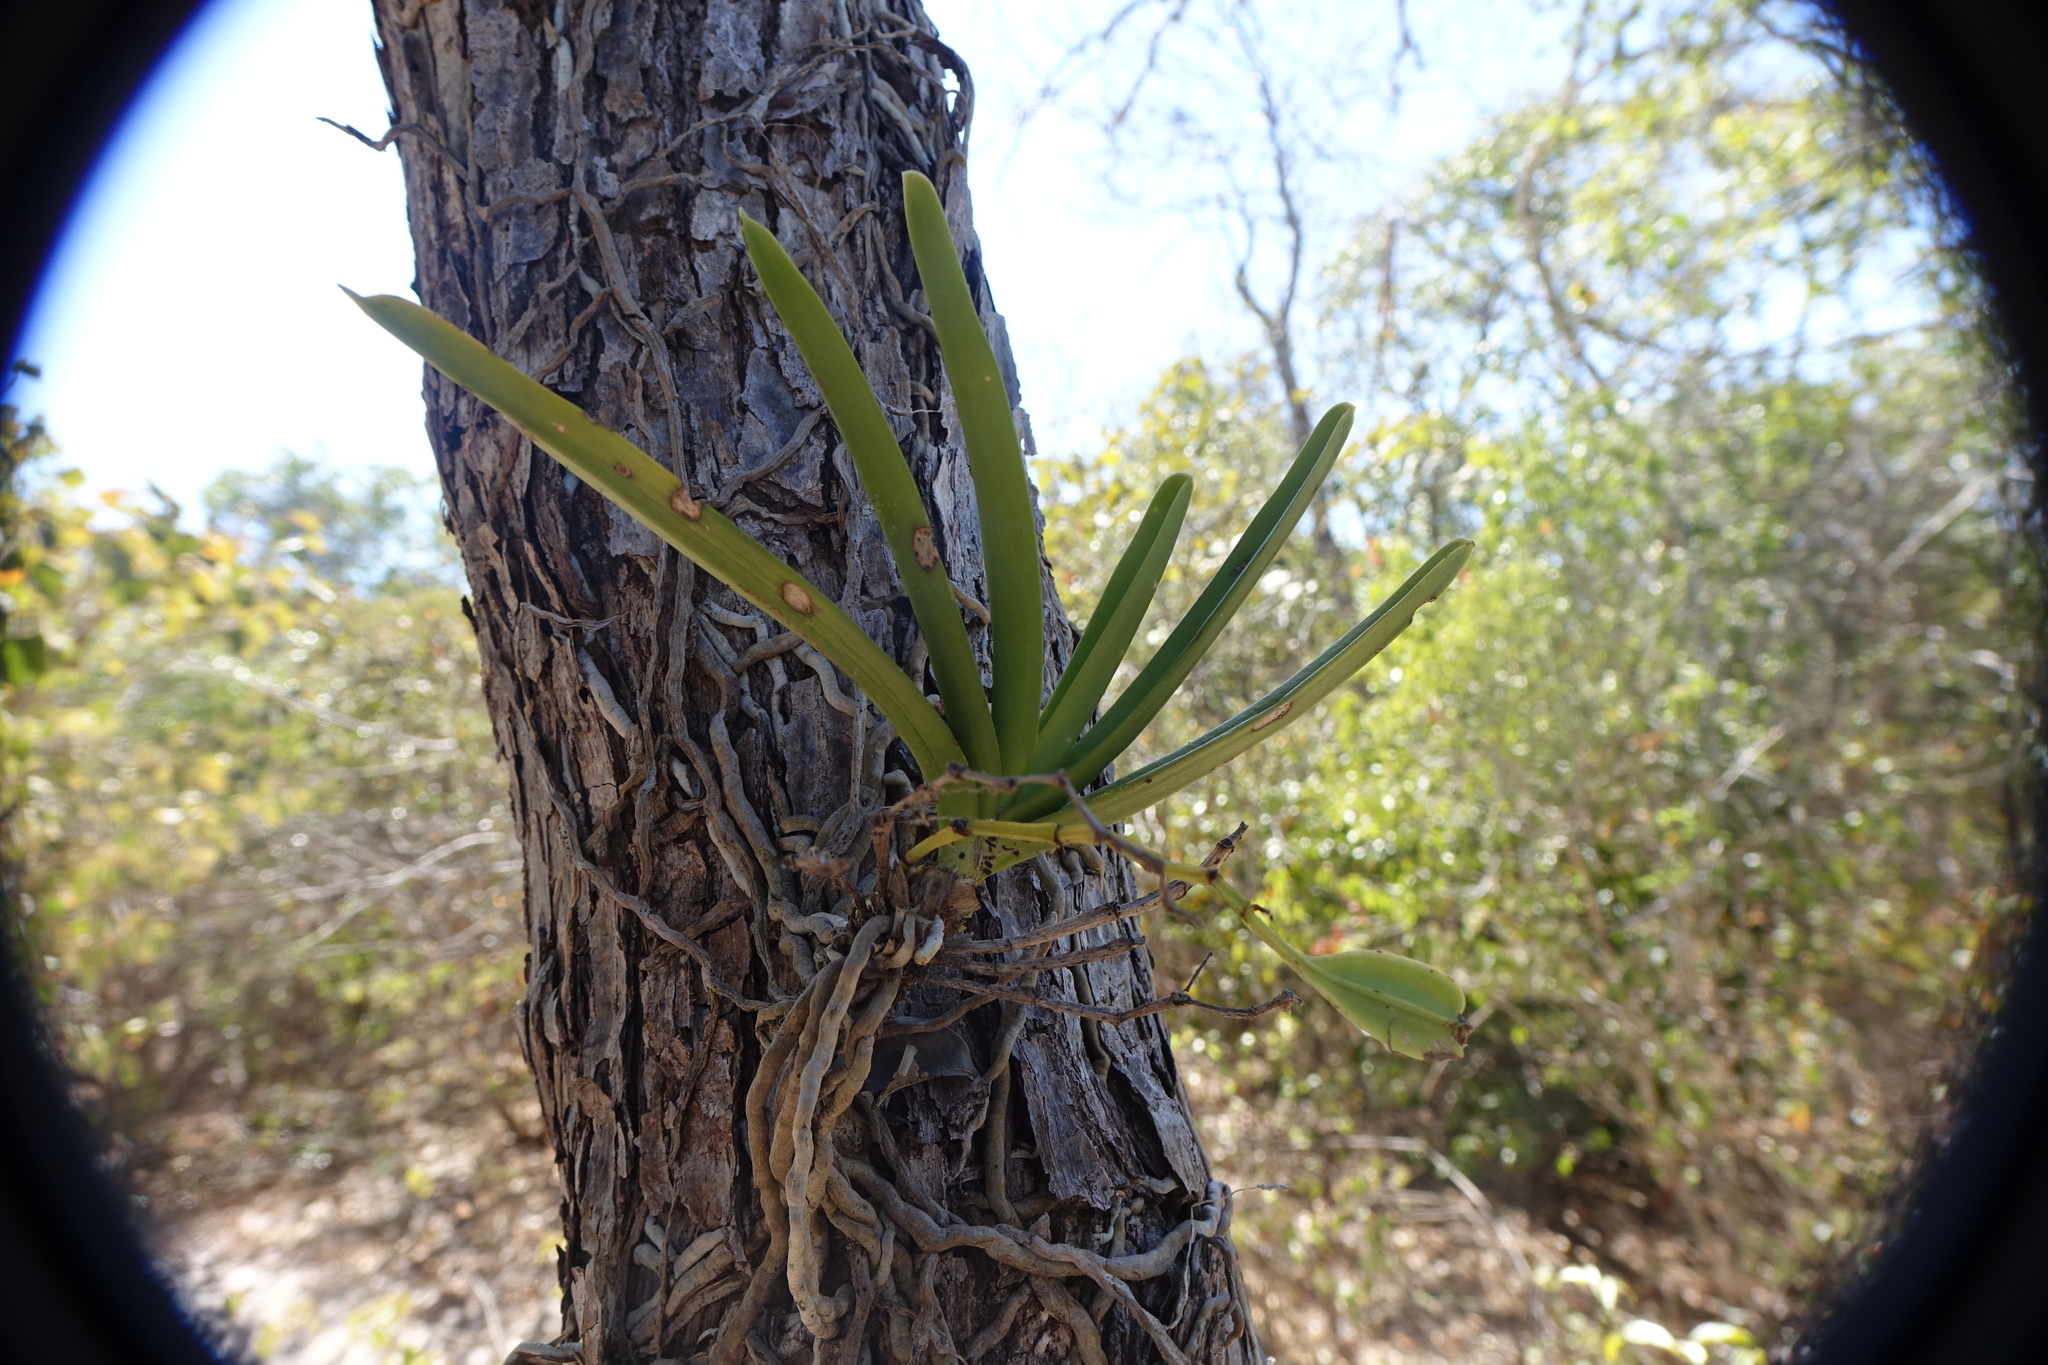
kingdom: Plantae
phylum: Tracheophyta
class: Liliopsida
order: Asparagales
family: Orchidaceae
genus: Angraecum
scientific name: Angraecum potamophilum
